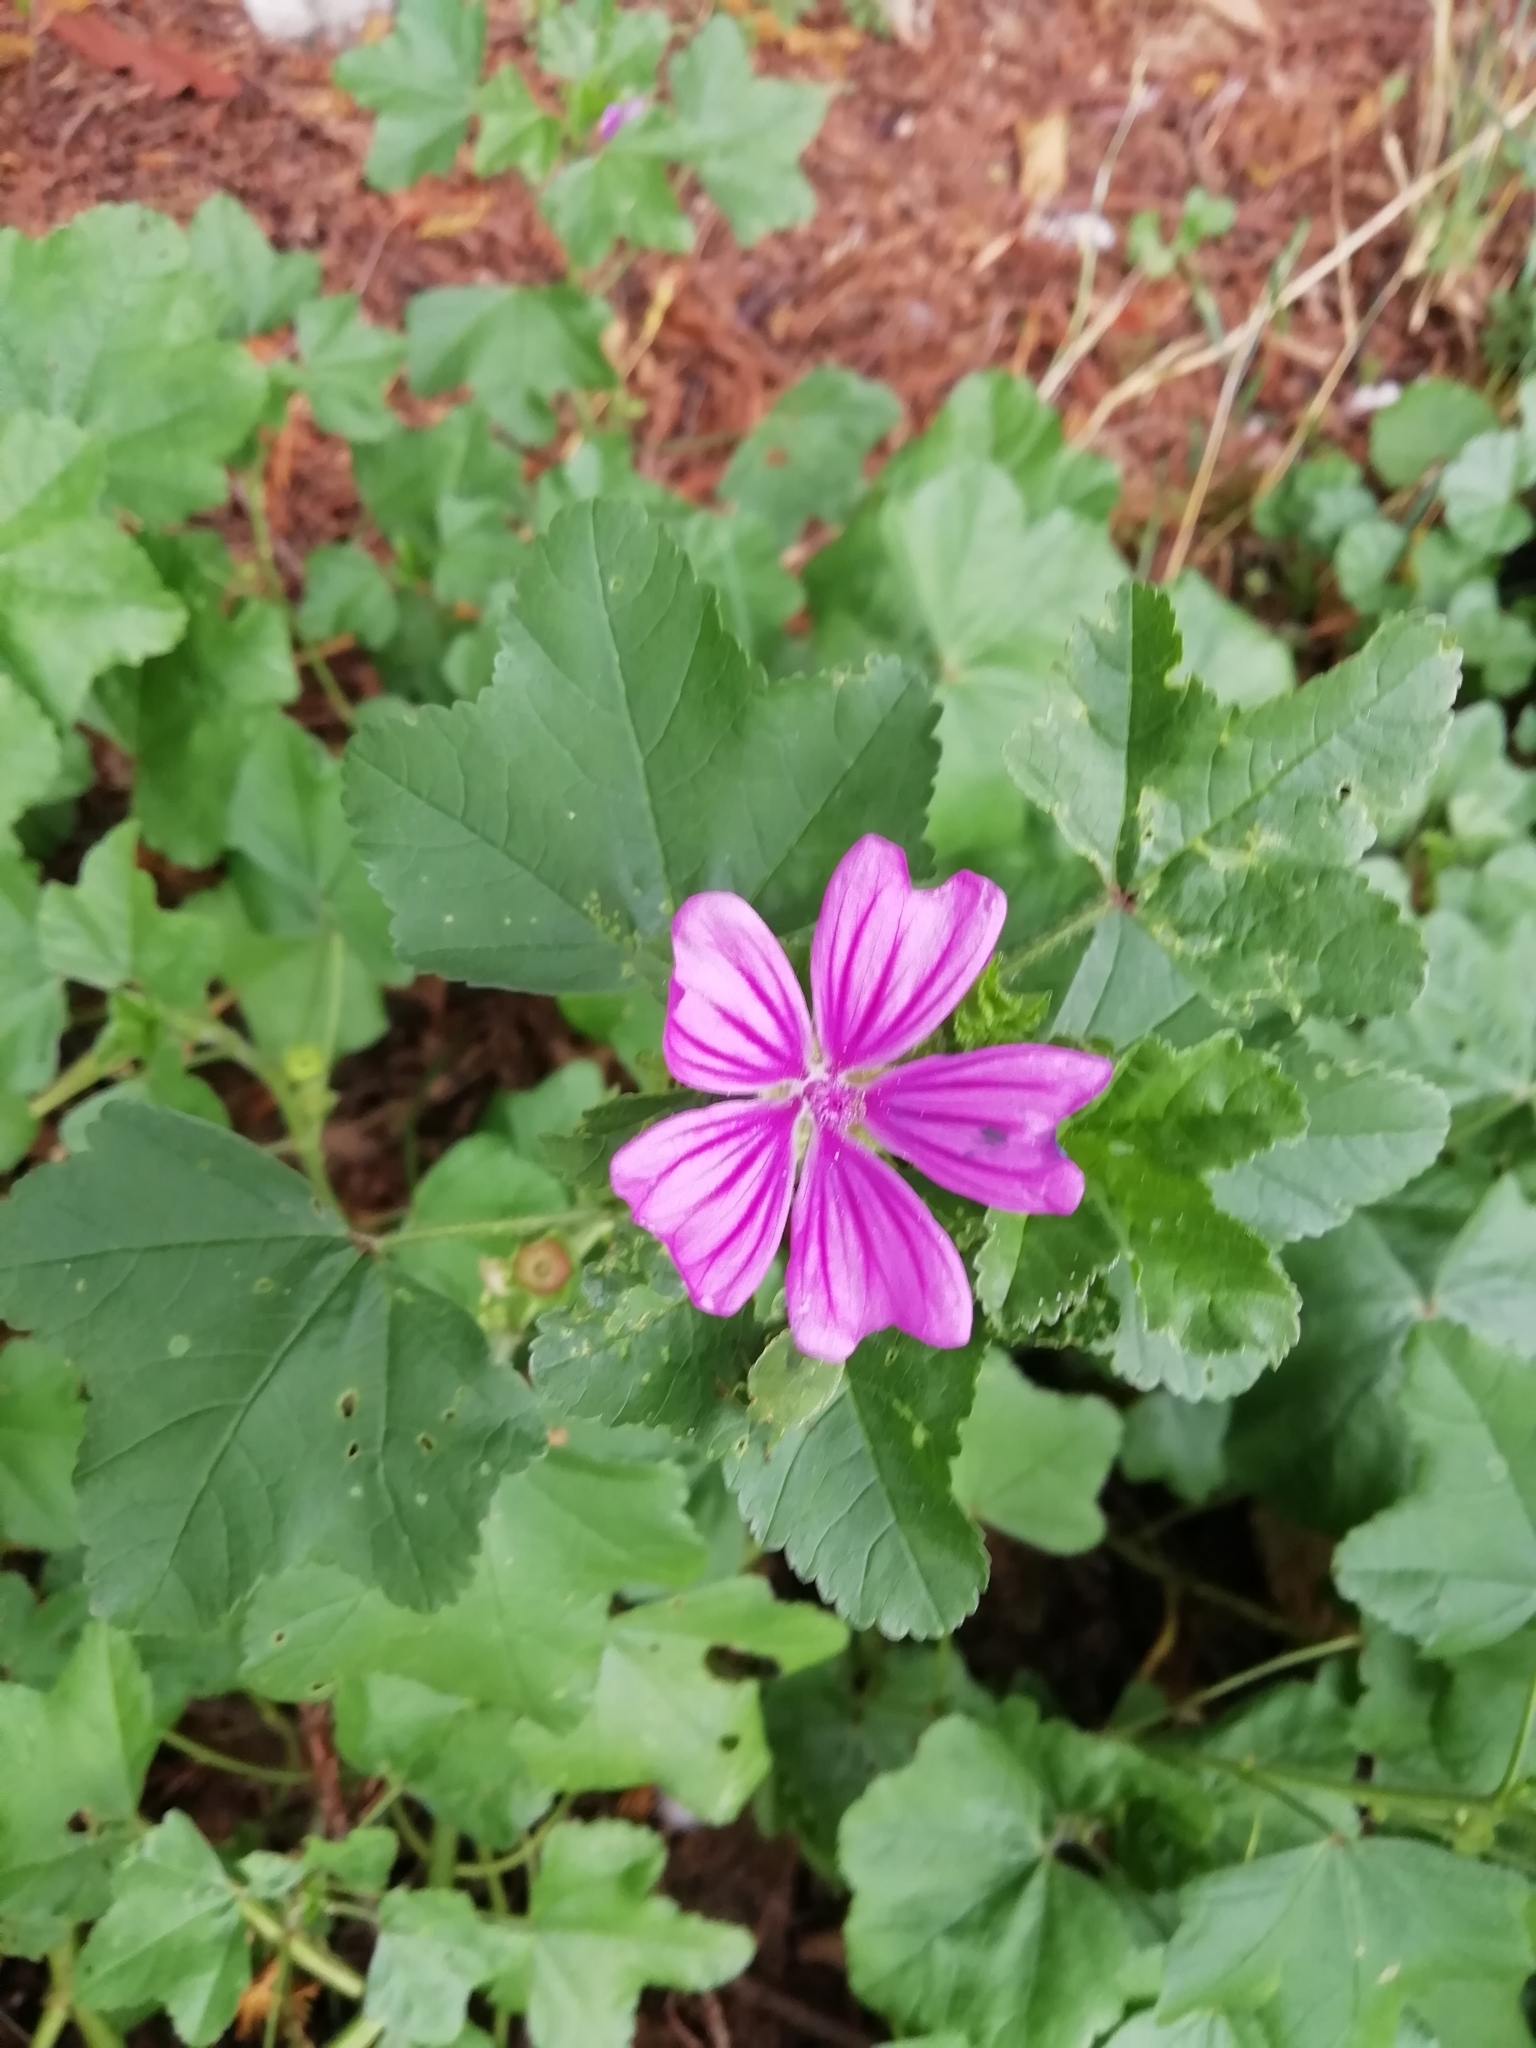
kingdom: Plantae
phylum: Tracheophyta
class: Magnoliopsida
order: Malvales
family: Malvaceae
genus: Malva
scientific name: Malva sylvestris
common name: Common mallow
